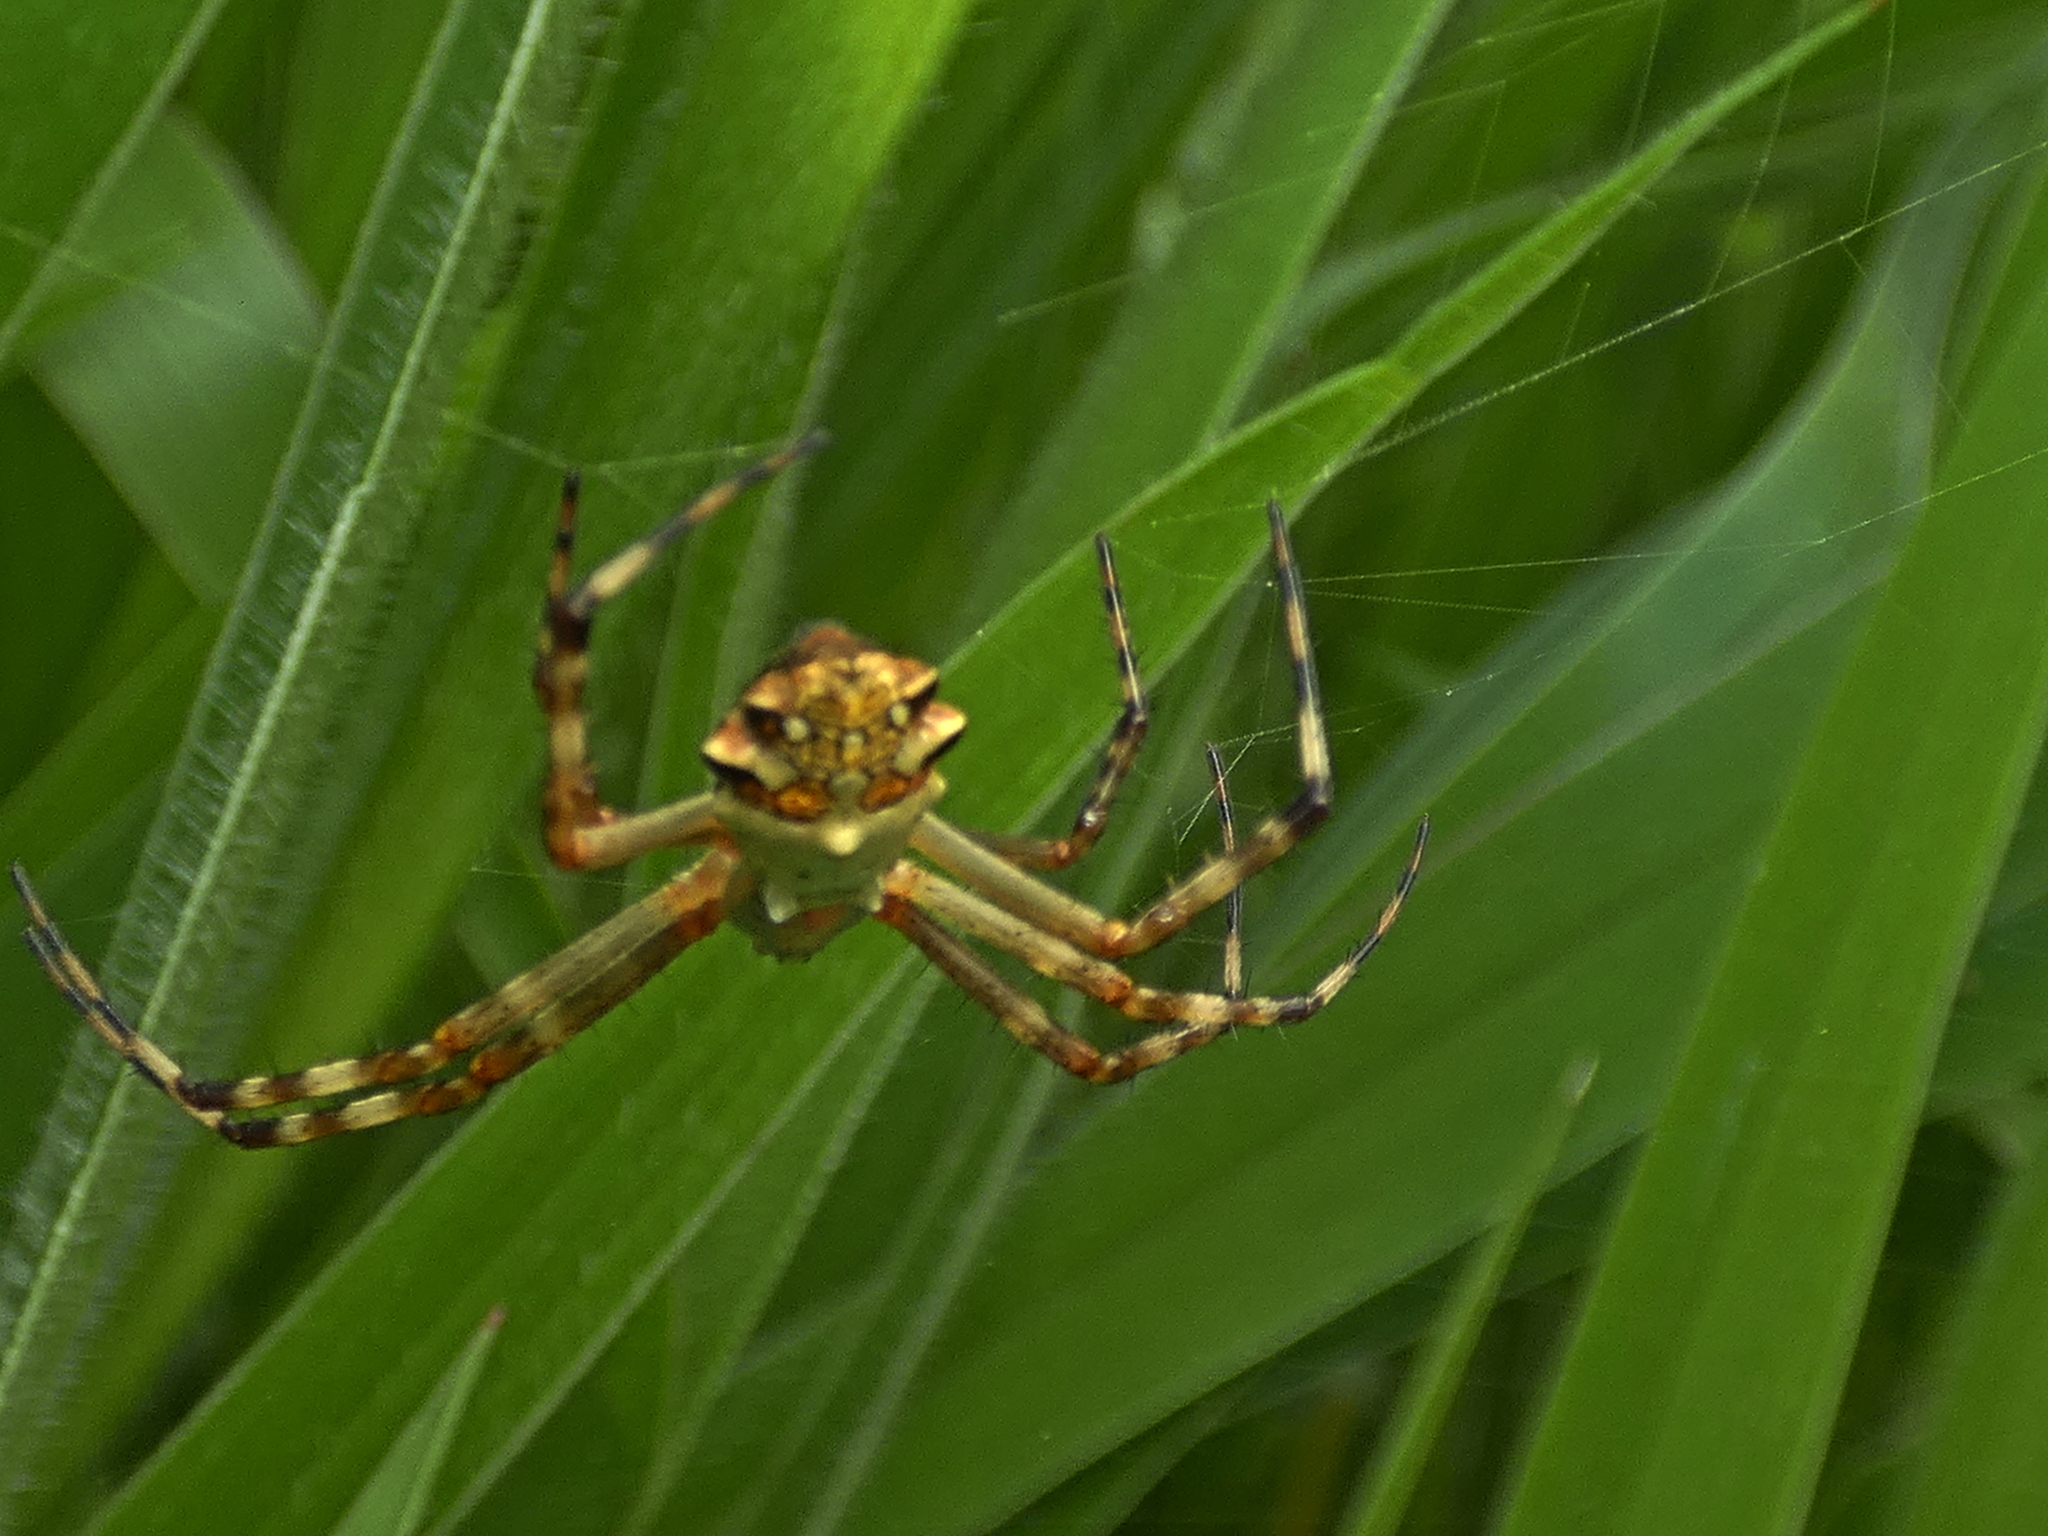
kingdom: Animalia
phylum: Arthropoda
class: Arachnida
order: Araneae
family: Araneidae
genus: Argiope
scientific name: Argiope argentata
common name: Orb weavers
